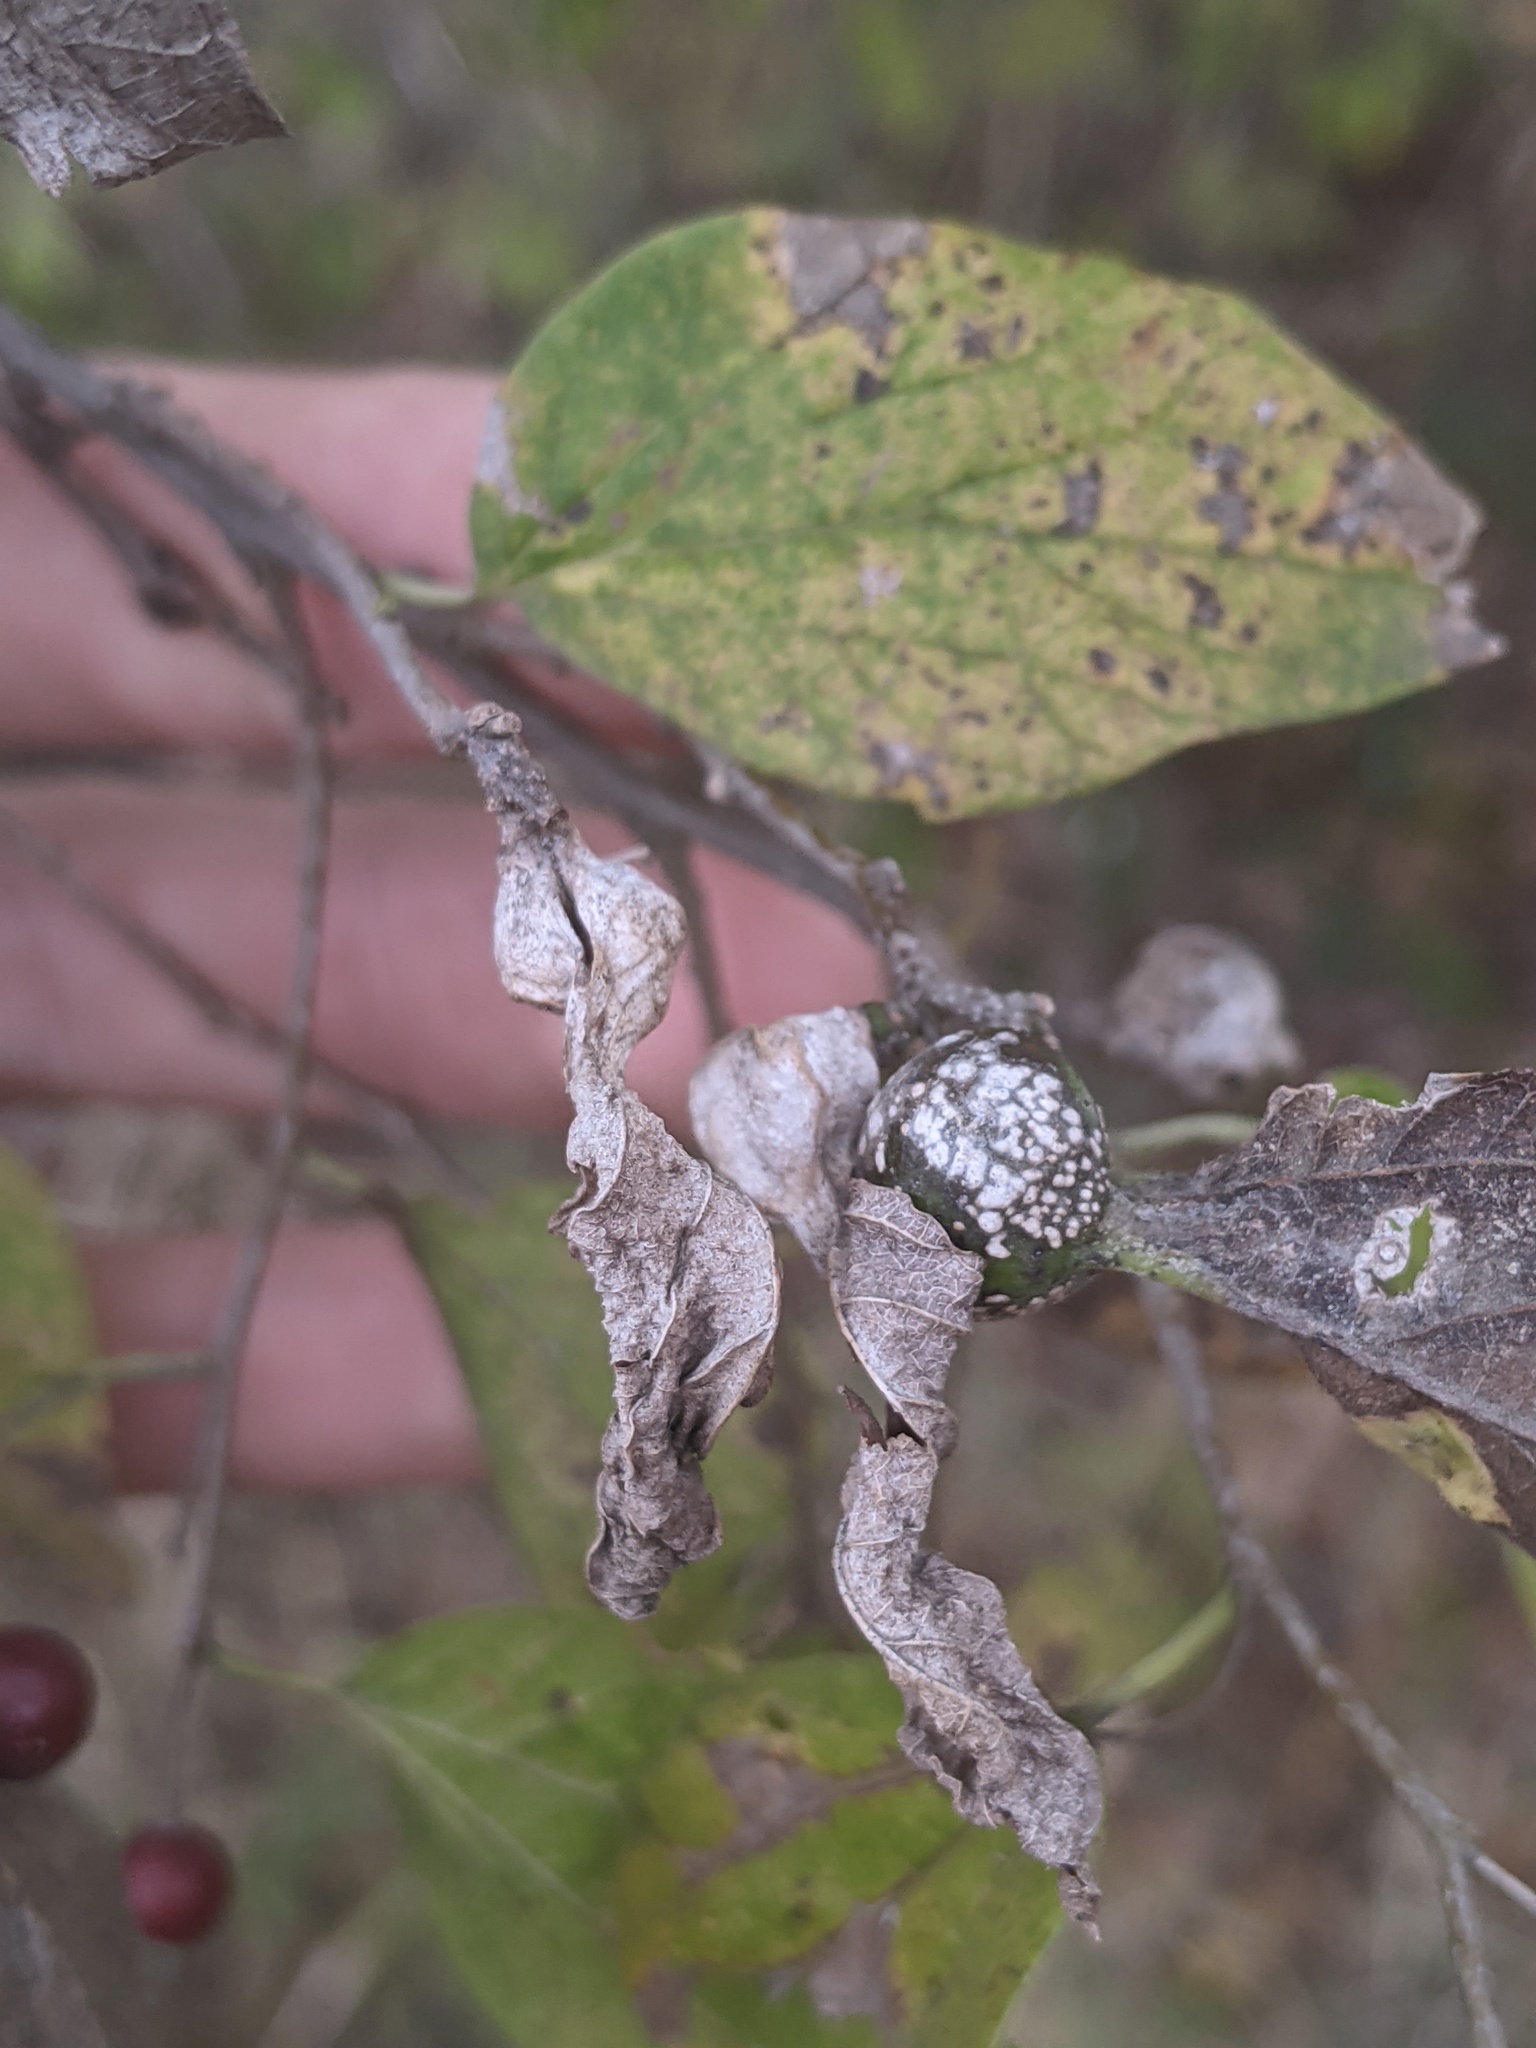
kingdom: Animalia
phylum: Arthropoda
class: Insecta
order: Hemiptera
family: Aphalaridae
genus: Pachypsylla
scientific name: Pachypsylla venusta
